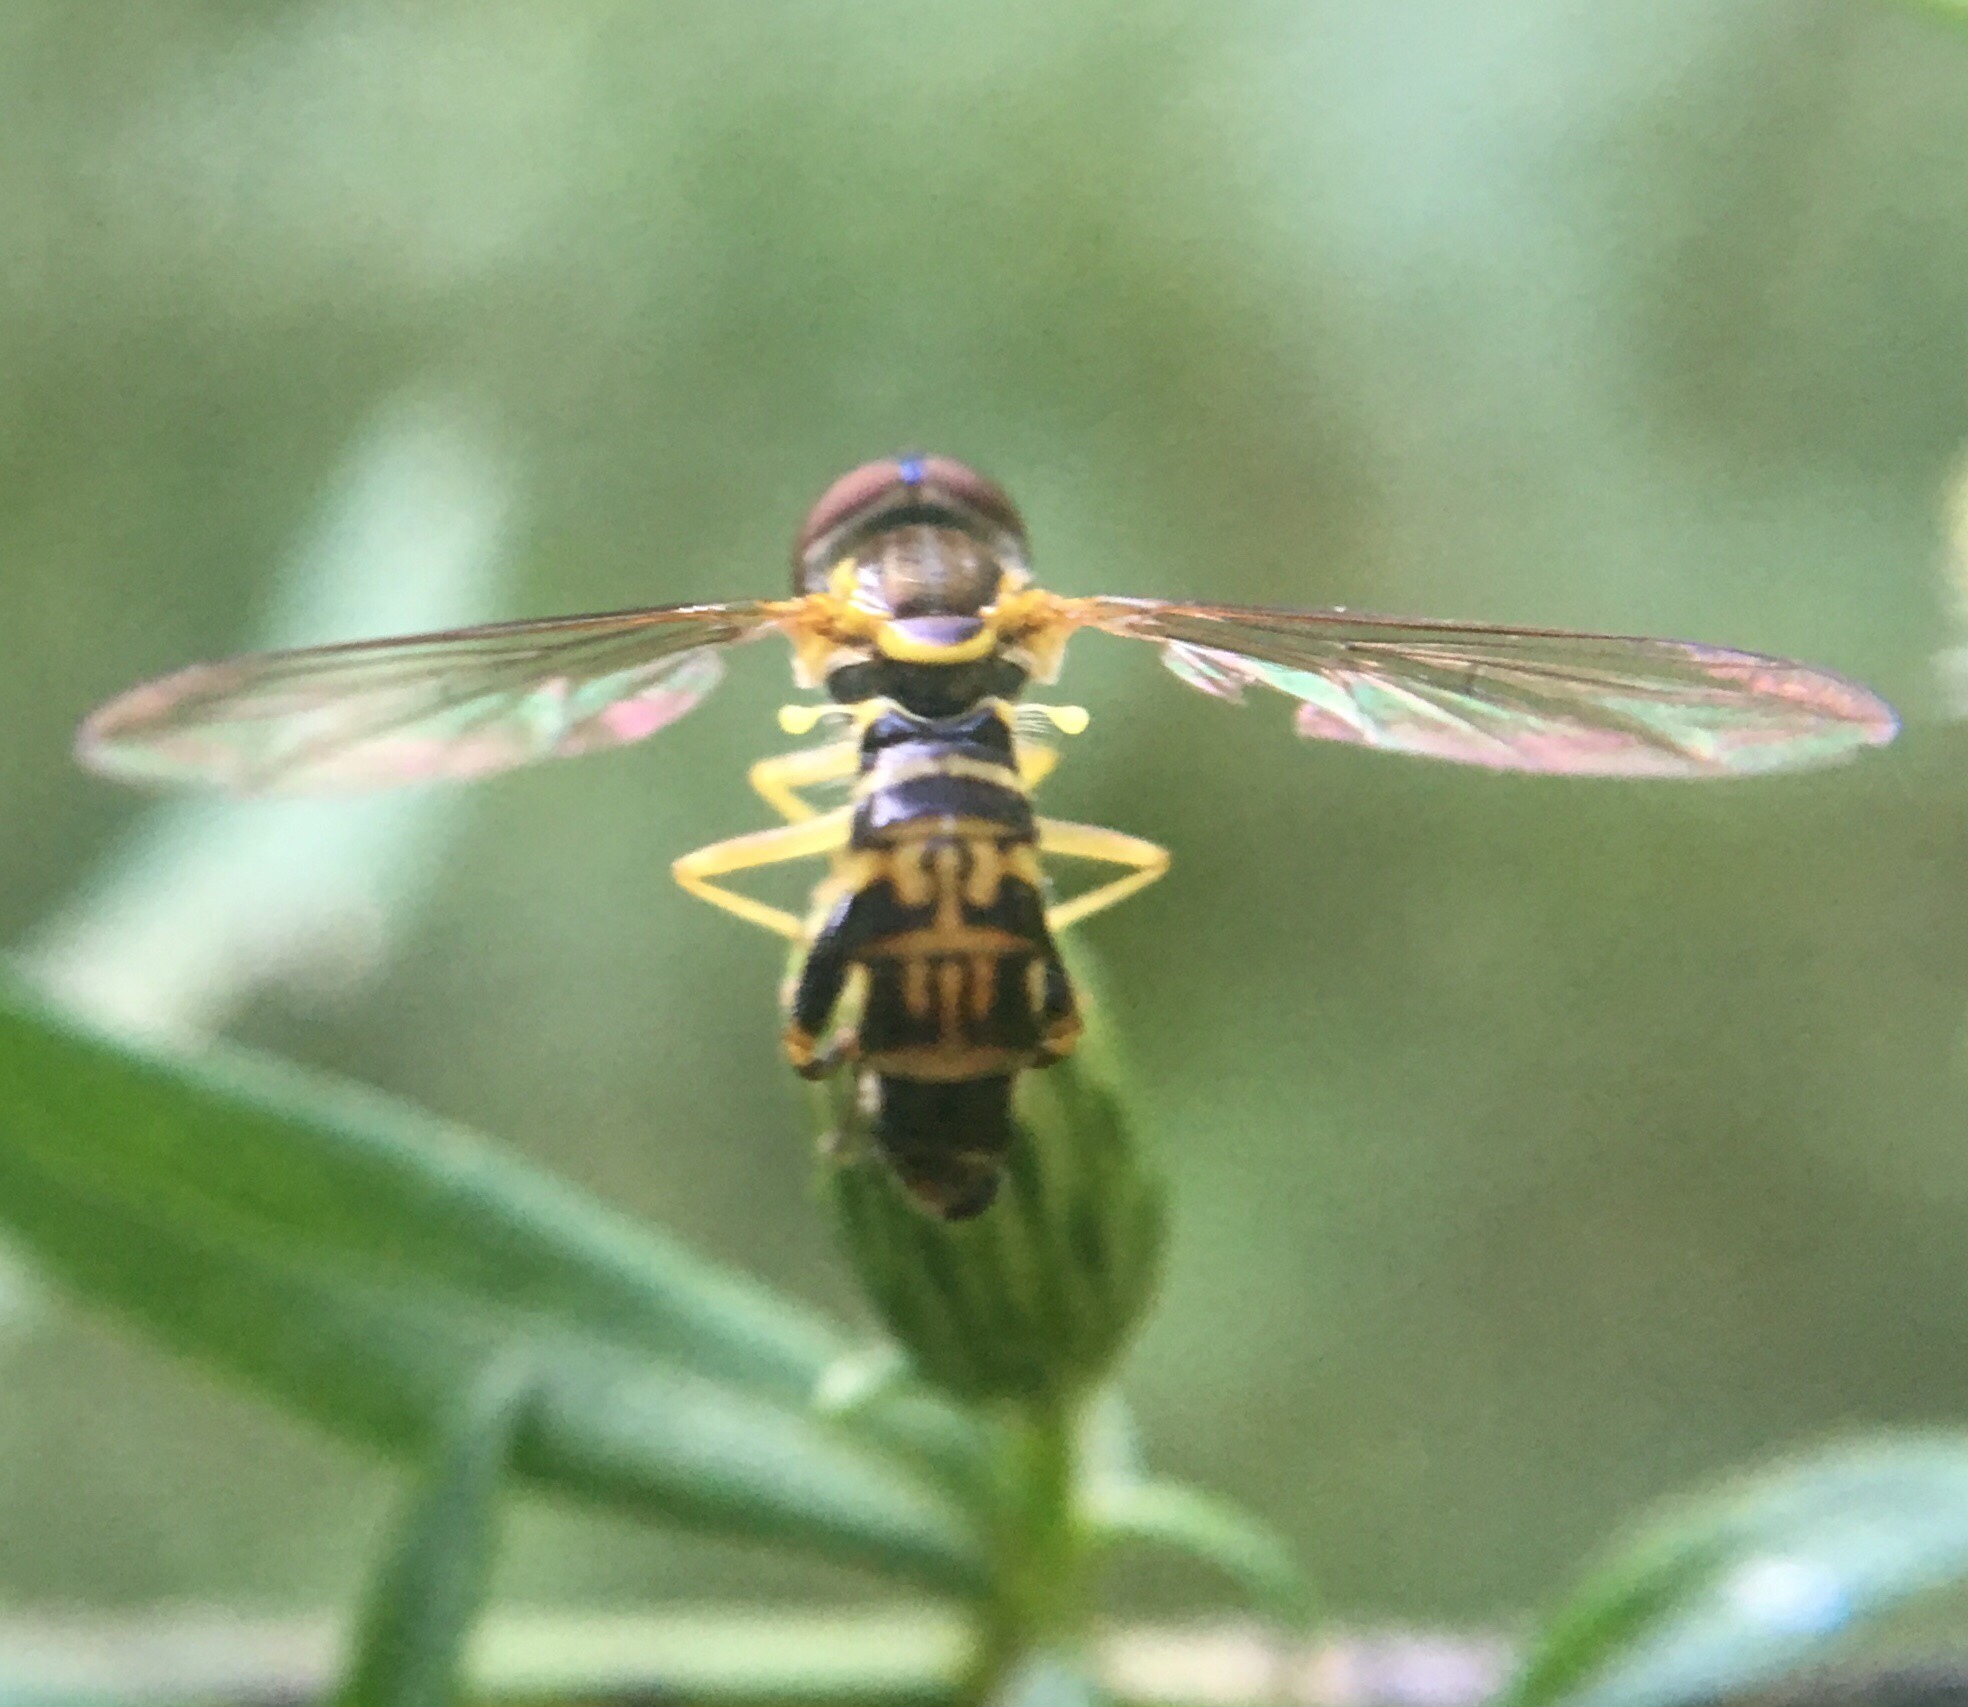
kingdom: Animalia
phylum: Arthropoda
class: Insecta
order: Diptera
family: Syrphidae
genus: Toxomerus
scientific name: Toxomerus geminatus
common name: Eastern calligrapher
